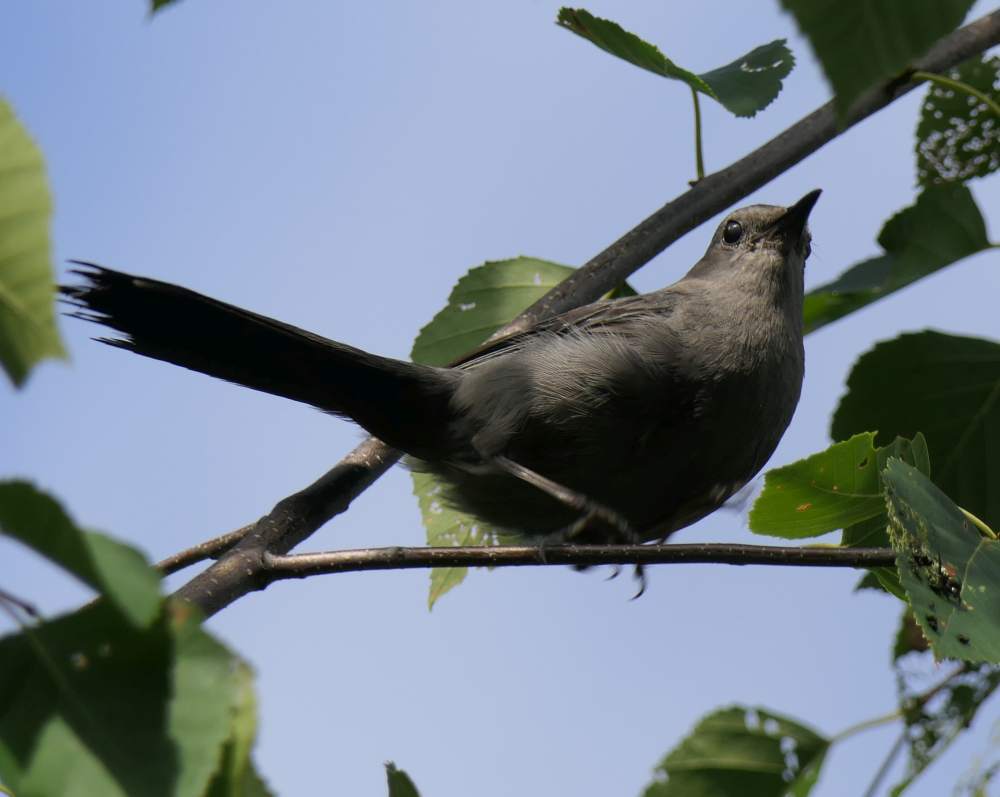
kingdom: Animalia
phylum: Chordata
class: Aves
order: Passeriformes
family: Mimidae
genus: Dumetella
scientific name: Dumetella carolinensis
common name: Gray catbird
